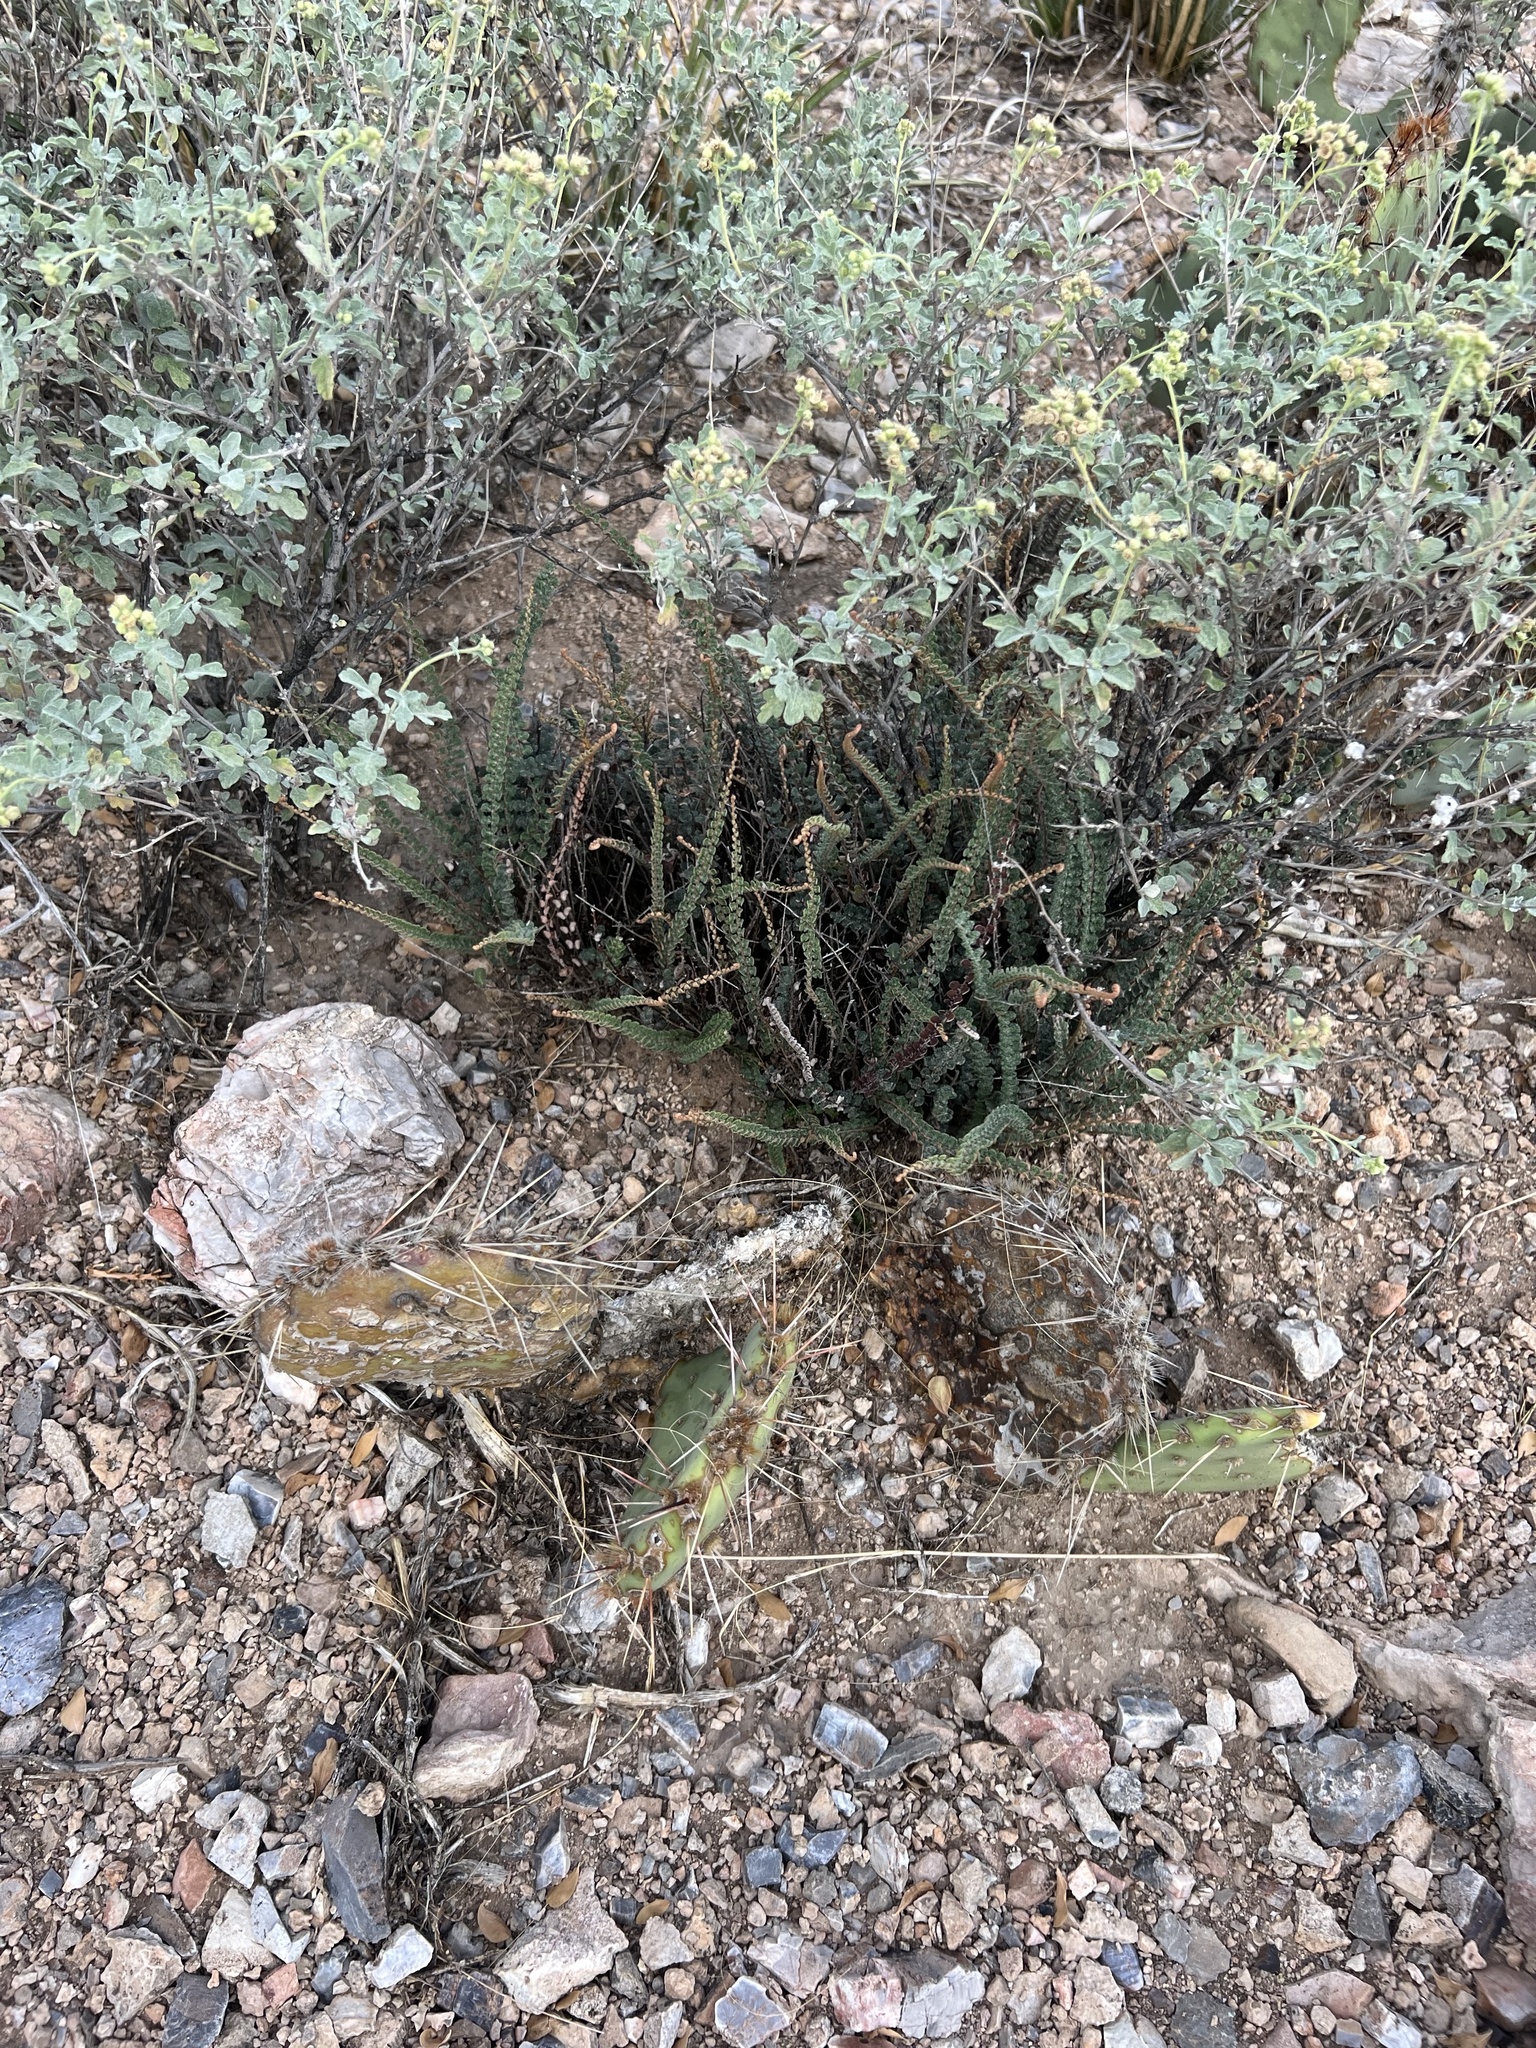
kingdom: Plantae
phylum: Tracheophyta
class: Polypodiopsida
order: Polypodiales
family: Pteridaceae
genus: Astrolepis
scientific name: Astrolepis cochisensis
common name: Scaly cloak fern
